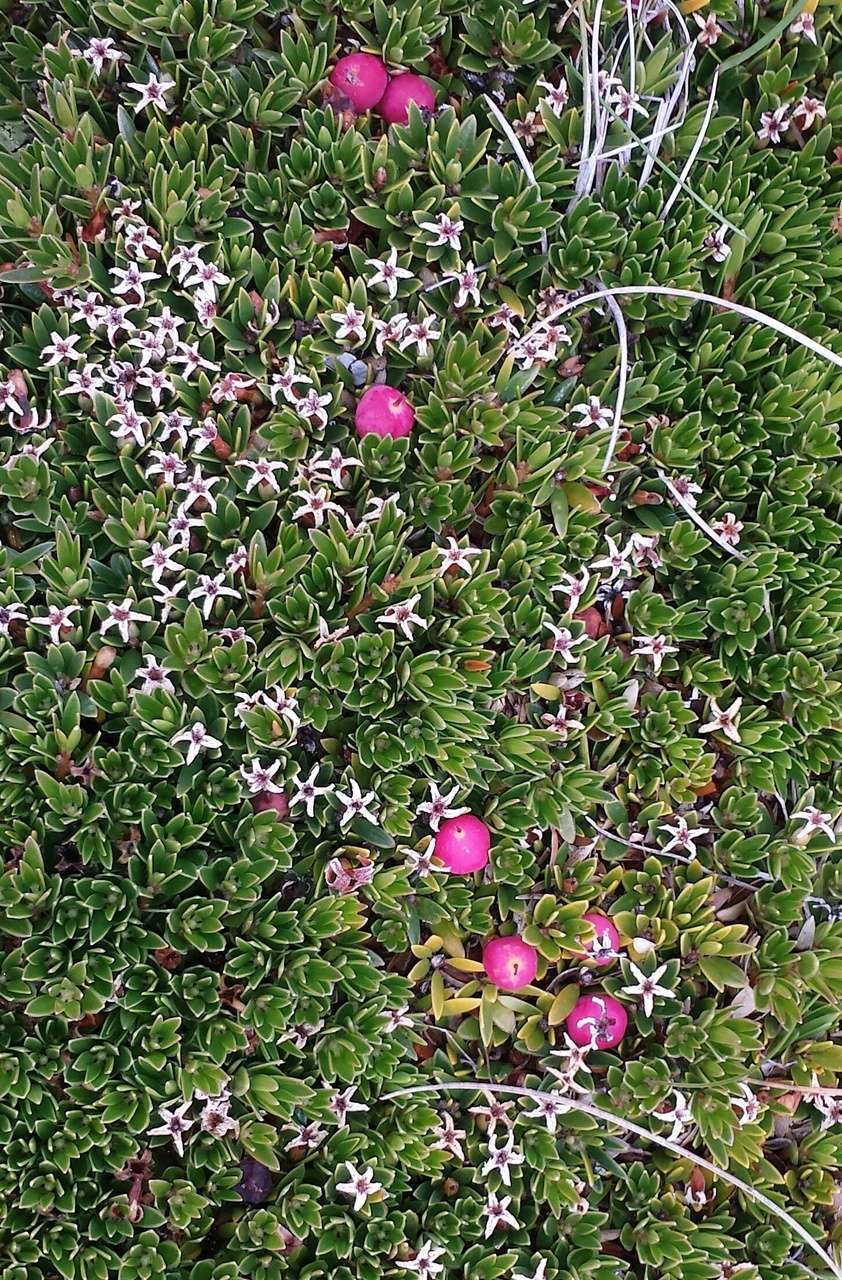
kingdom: Plantae
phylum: Tracheophyta
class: Magnoliopsida
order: Ericales
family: Ericaceae
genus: Pentachondra
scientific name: Pentachondra pumila
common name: Carpet-heath
